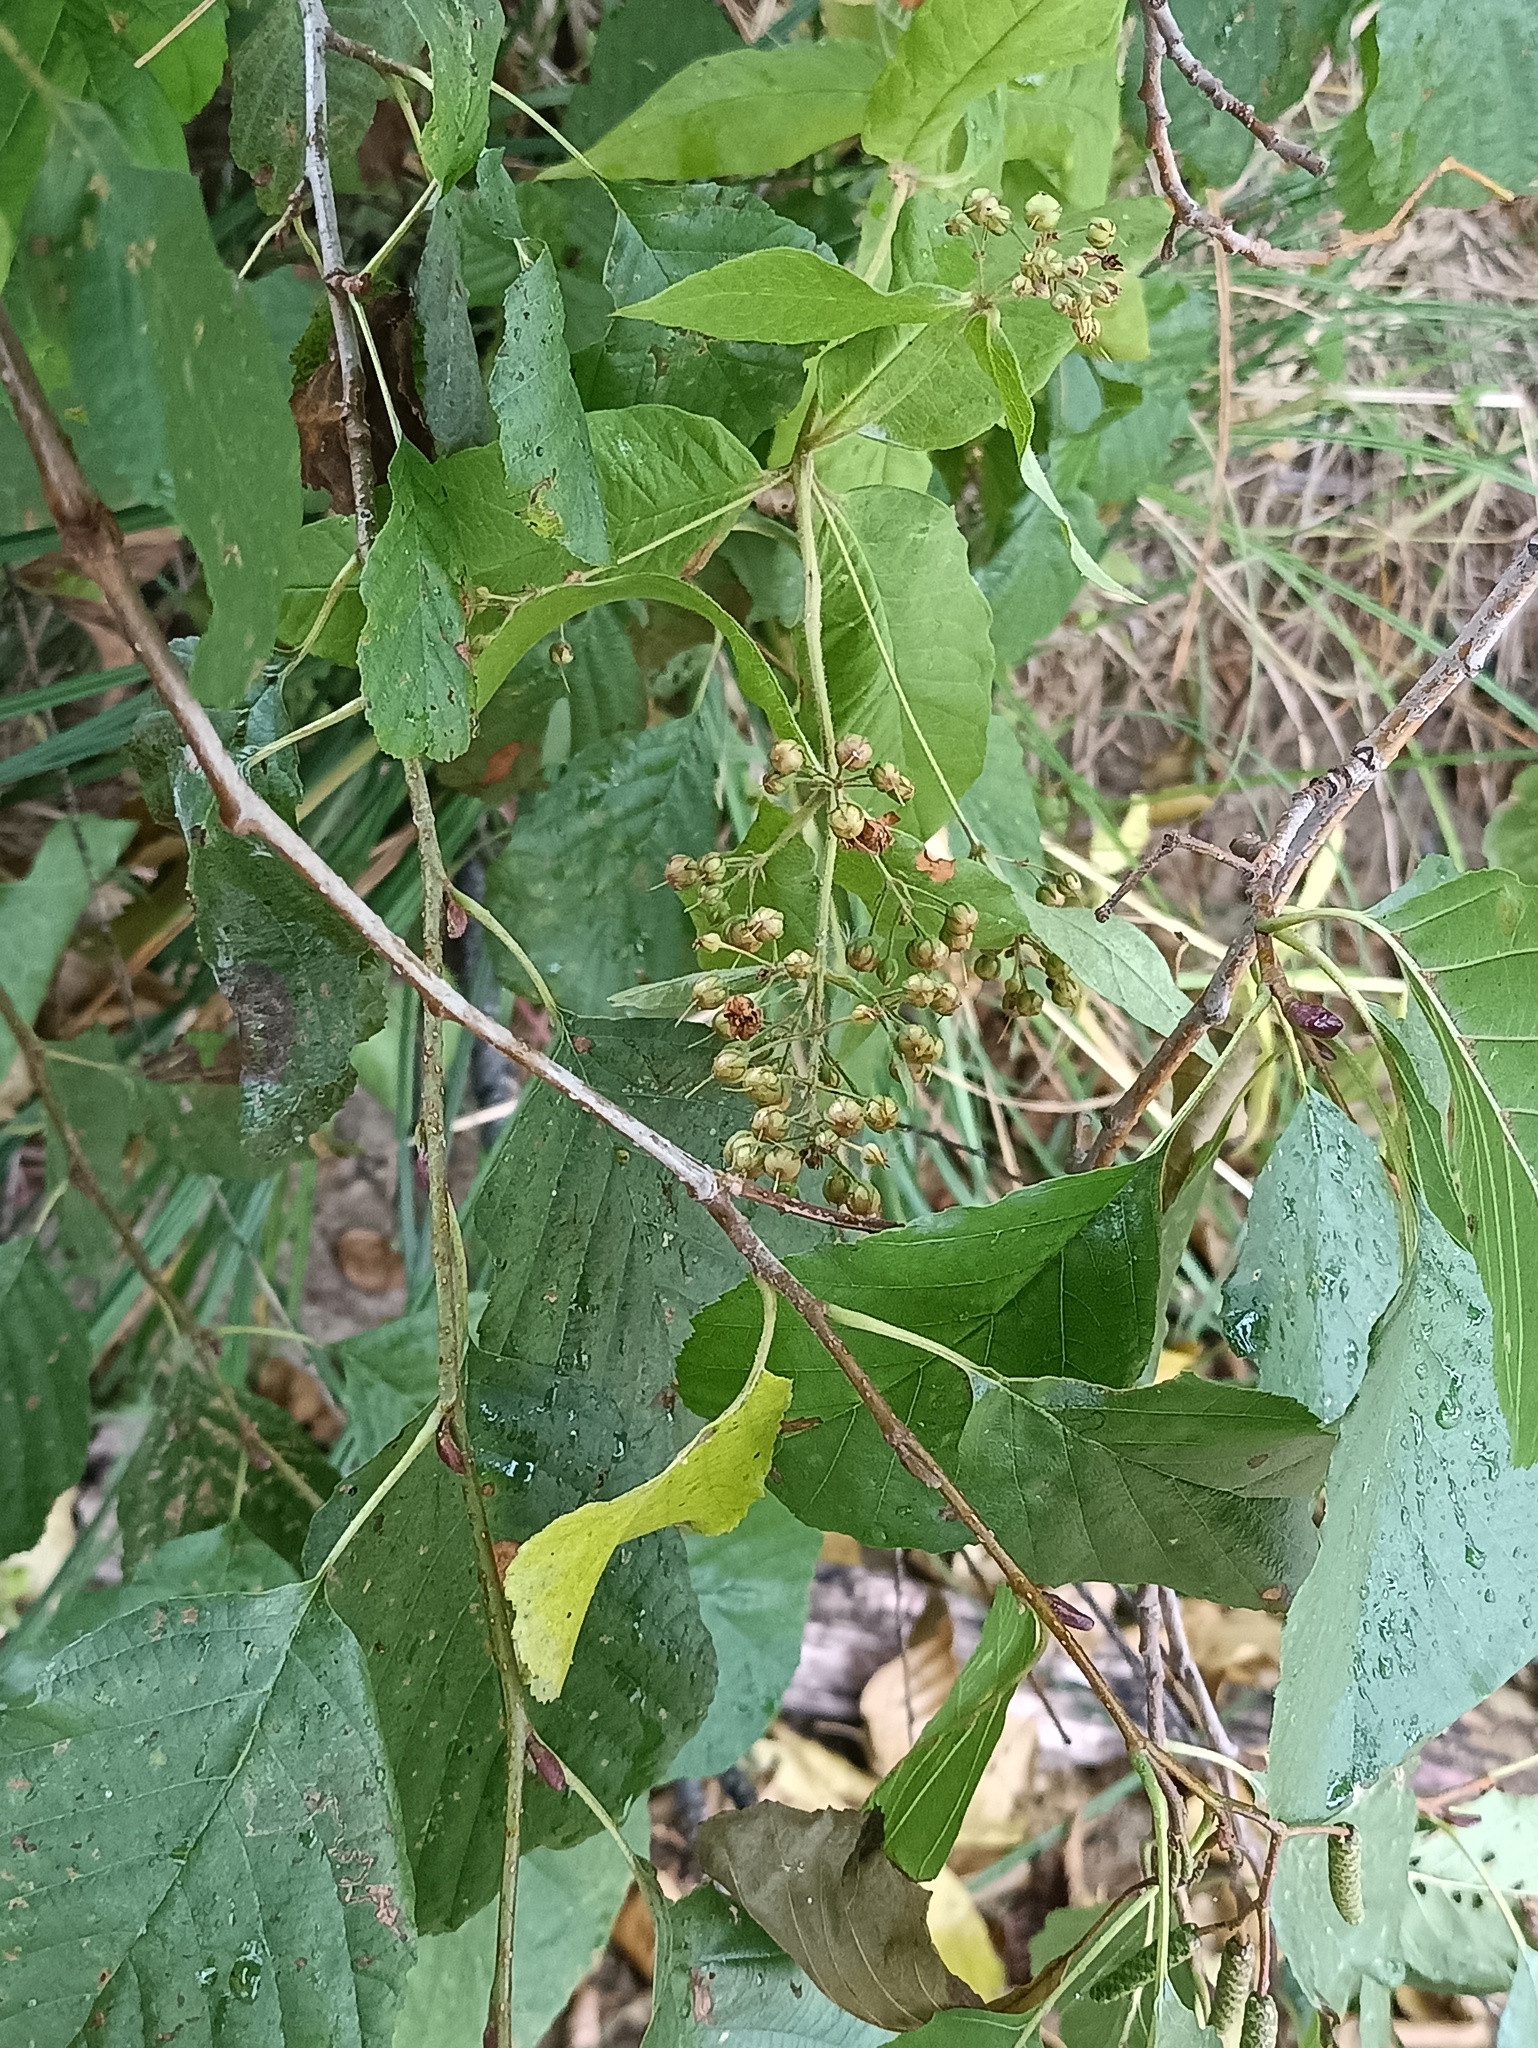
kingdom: Plantae
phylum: Tracheophyta
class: Magnoliopsida
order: Ericales
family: Primulaceae
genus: Lysimachia
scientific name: Lysimachia vulgaris
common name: Yellow loosestrife
